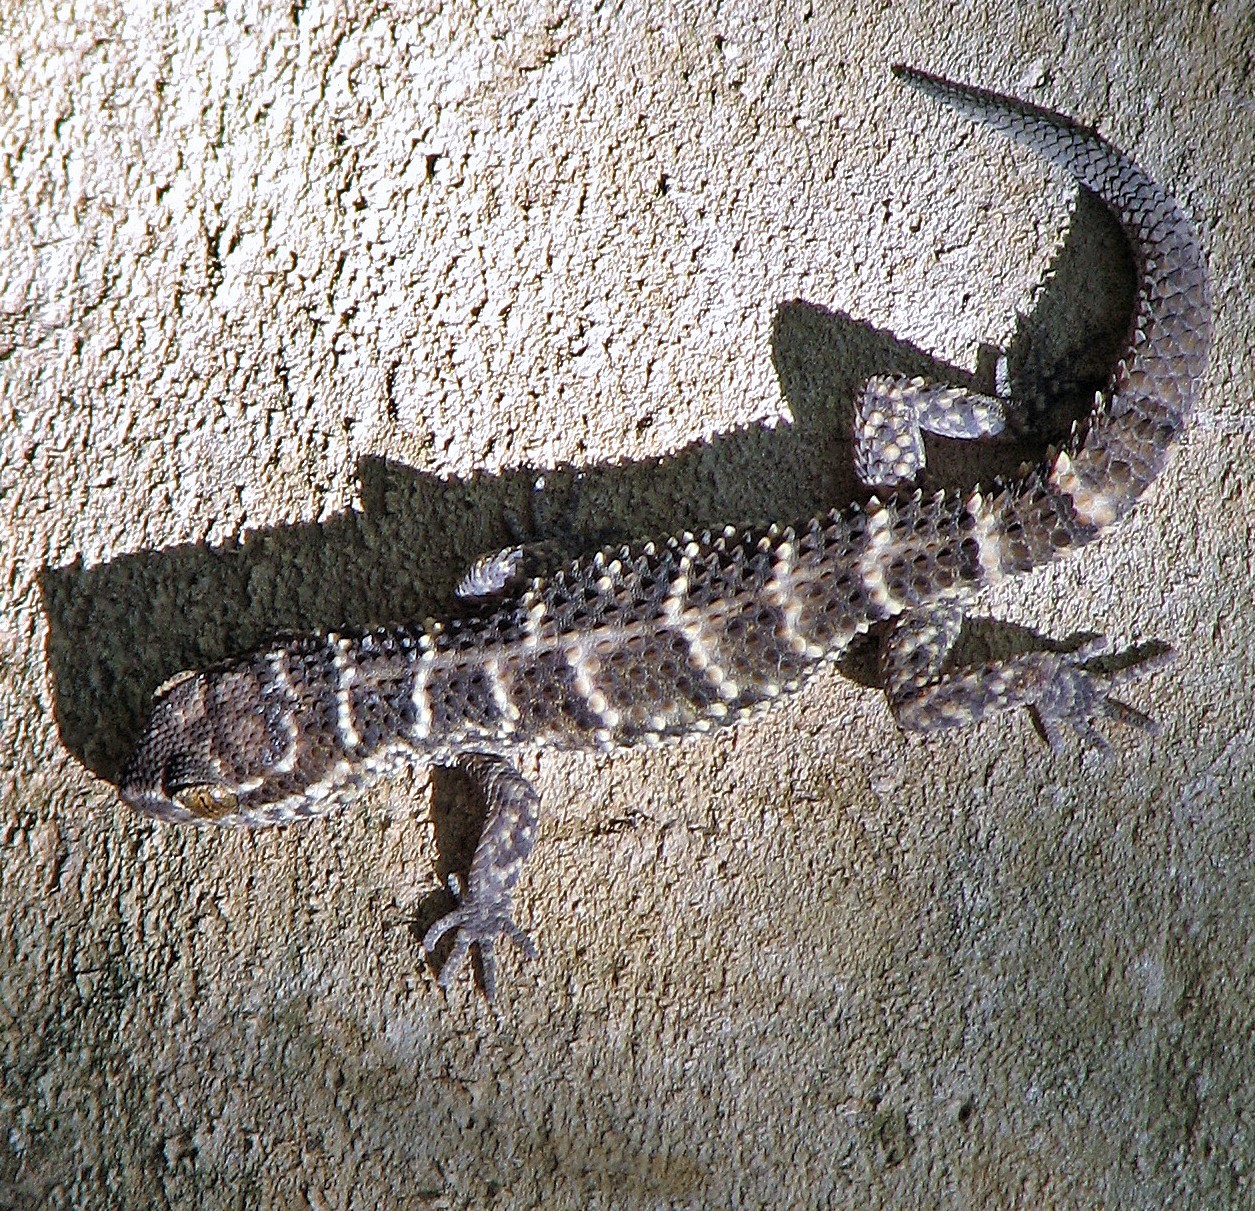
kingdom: Animalia
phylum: Chordata
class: Squamata
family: Phyllodactylidae
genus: Homonota
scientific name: Homonota horrida
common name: South american marked gecko
